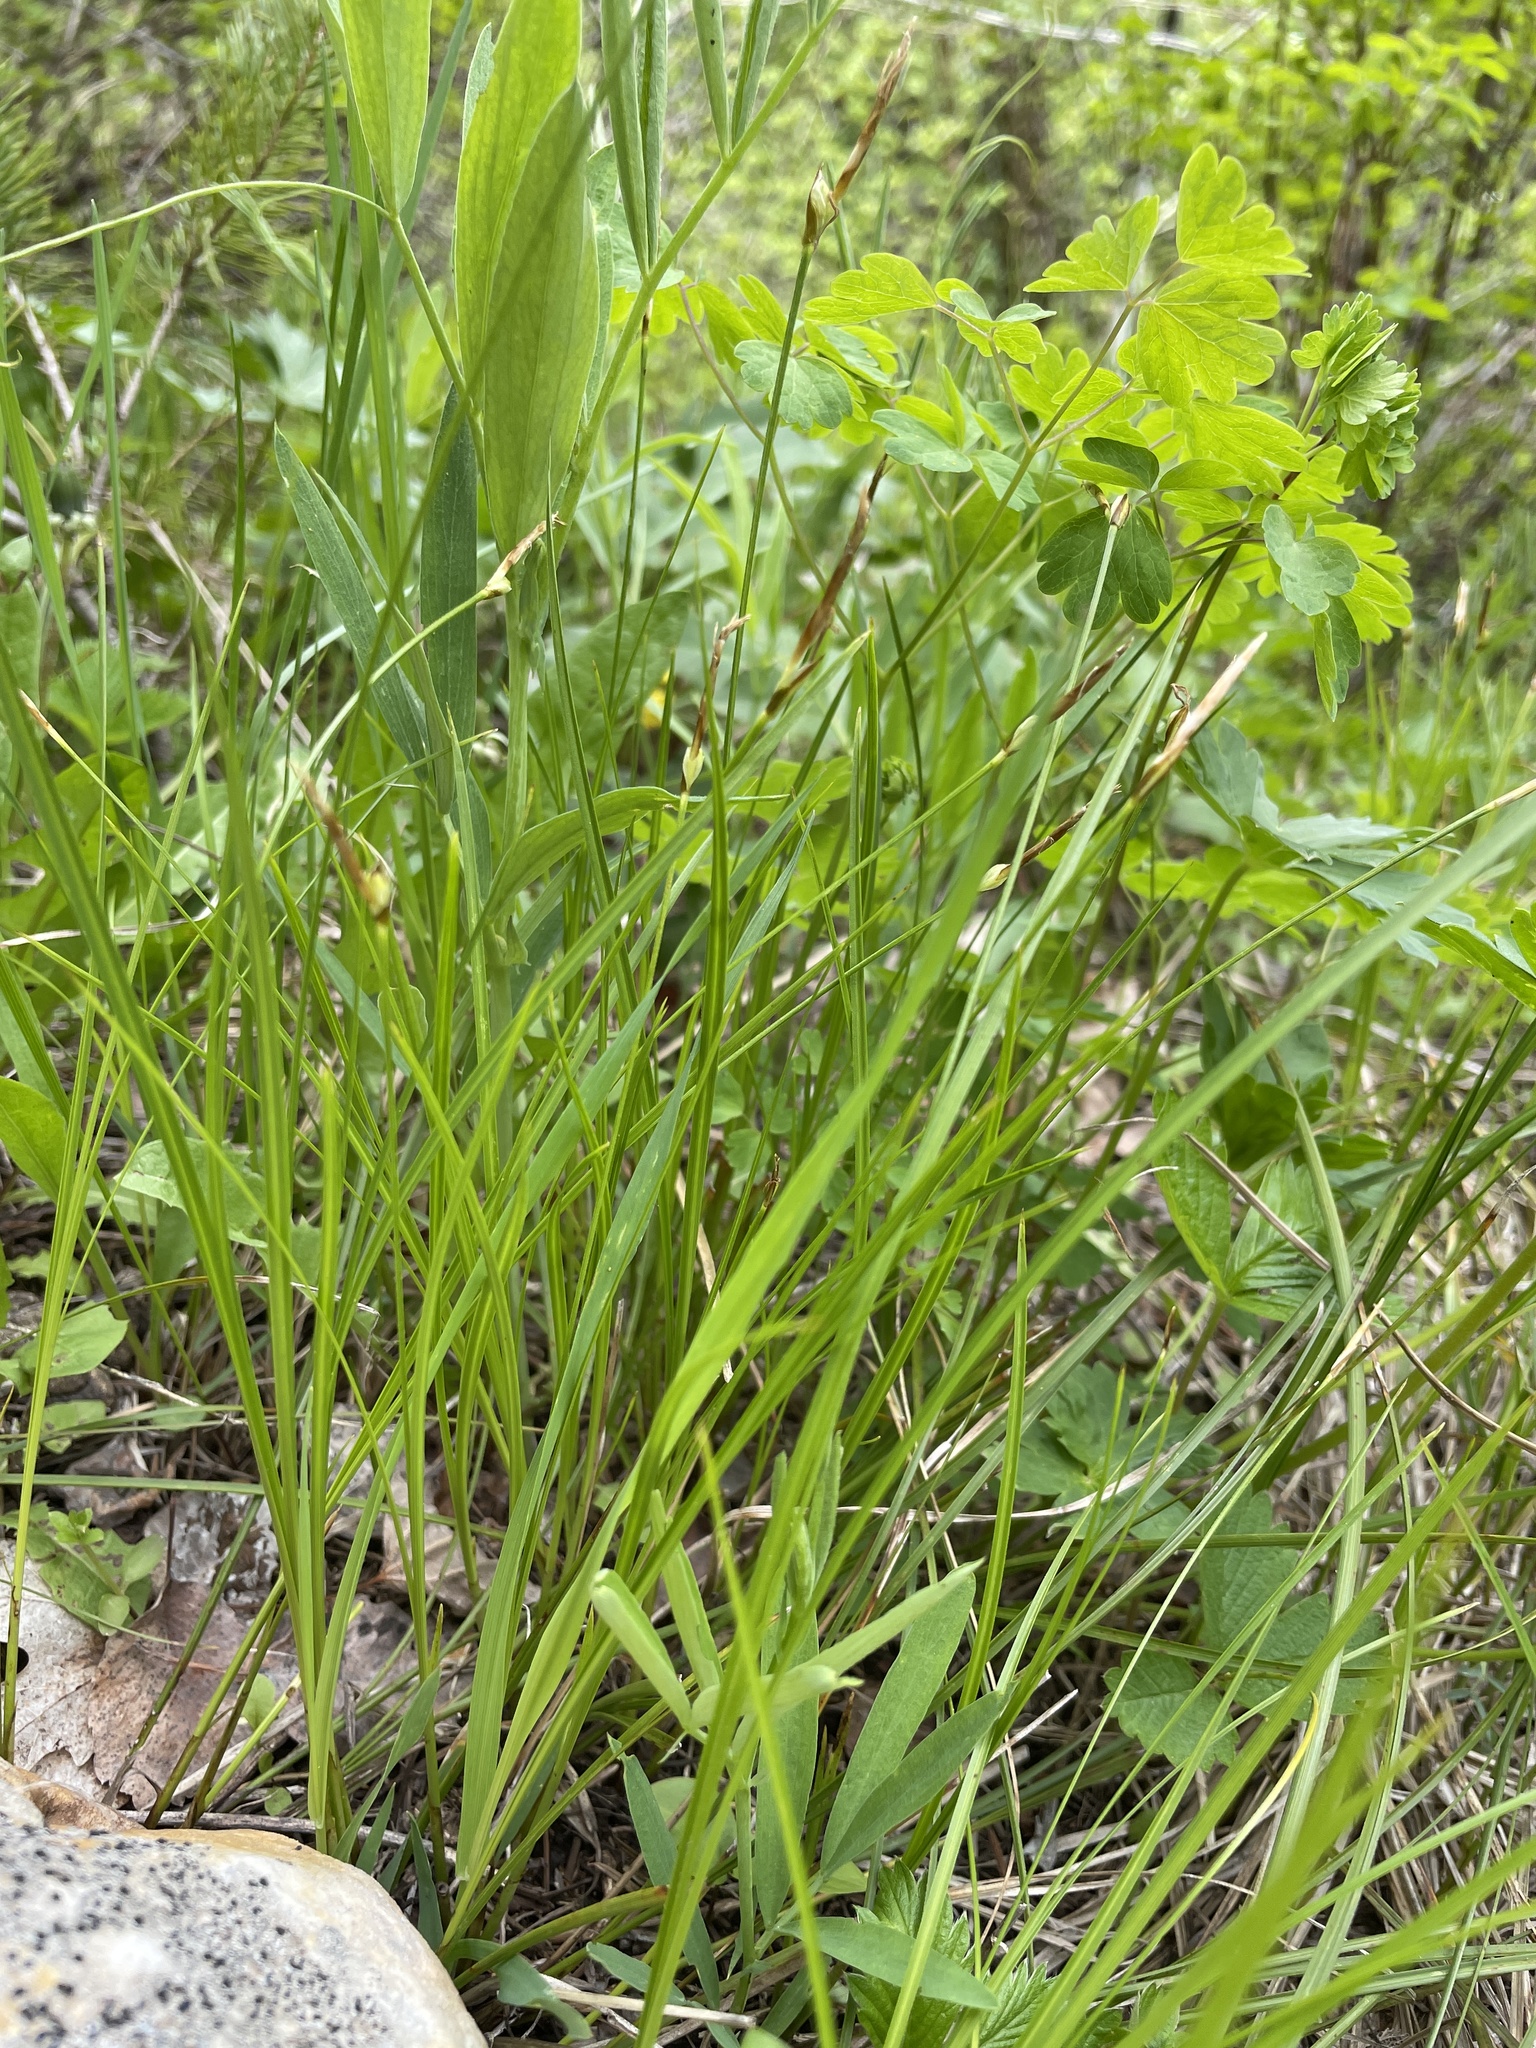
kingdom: Plantae
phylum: Tracheophyta
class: Liliopsida
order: Poales
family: Cyperaceae
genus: Carex
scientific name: Carex geyeri
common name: Elk sedge
